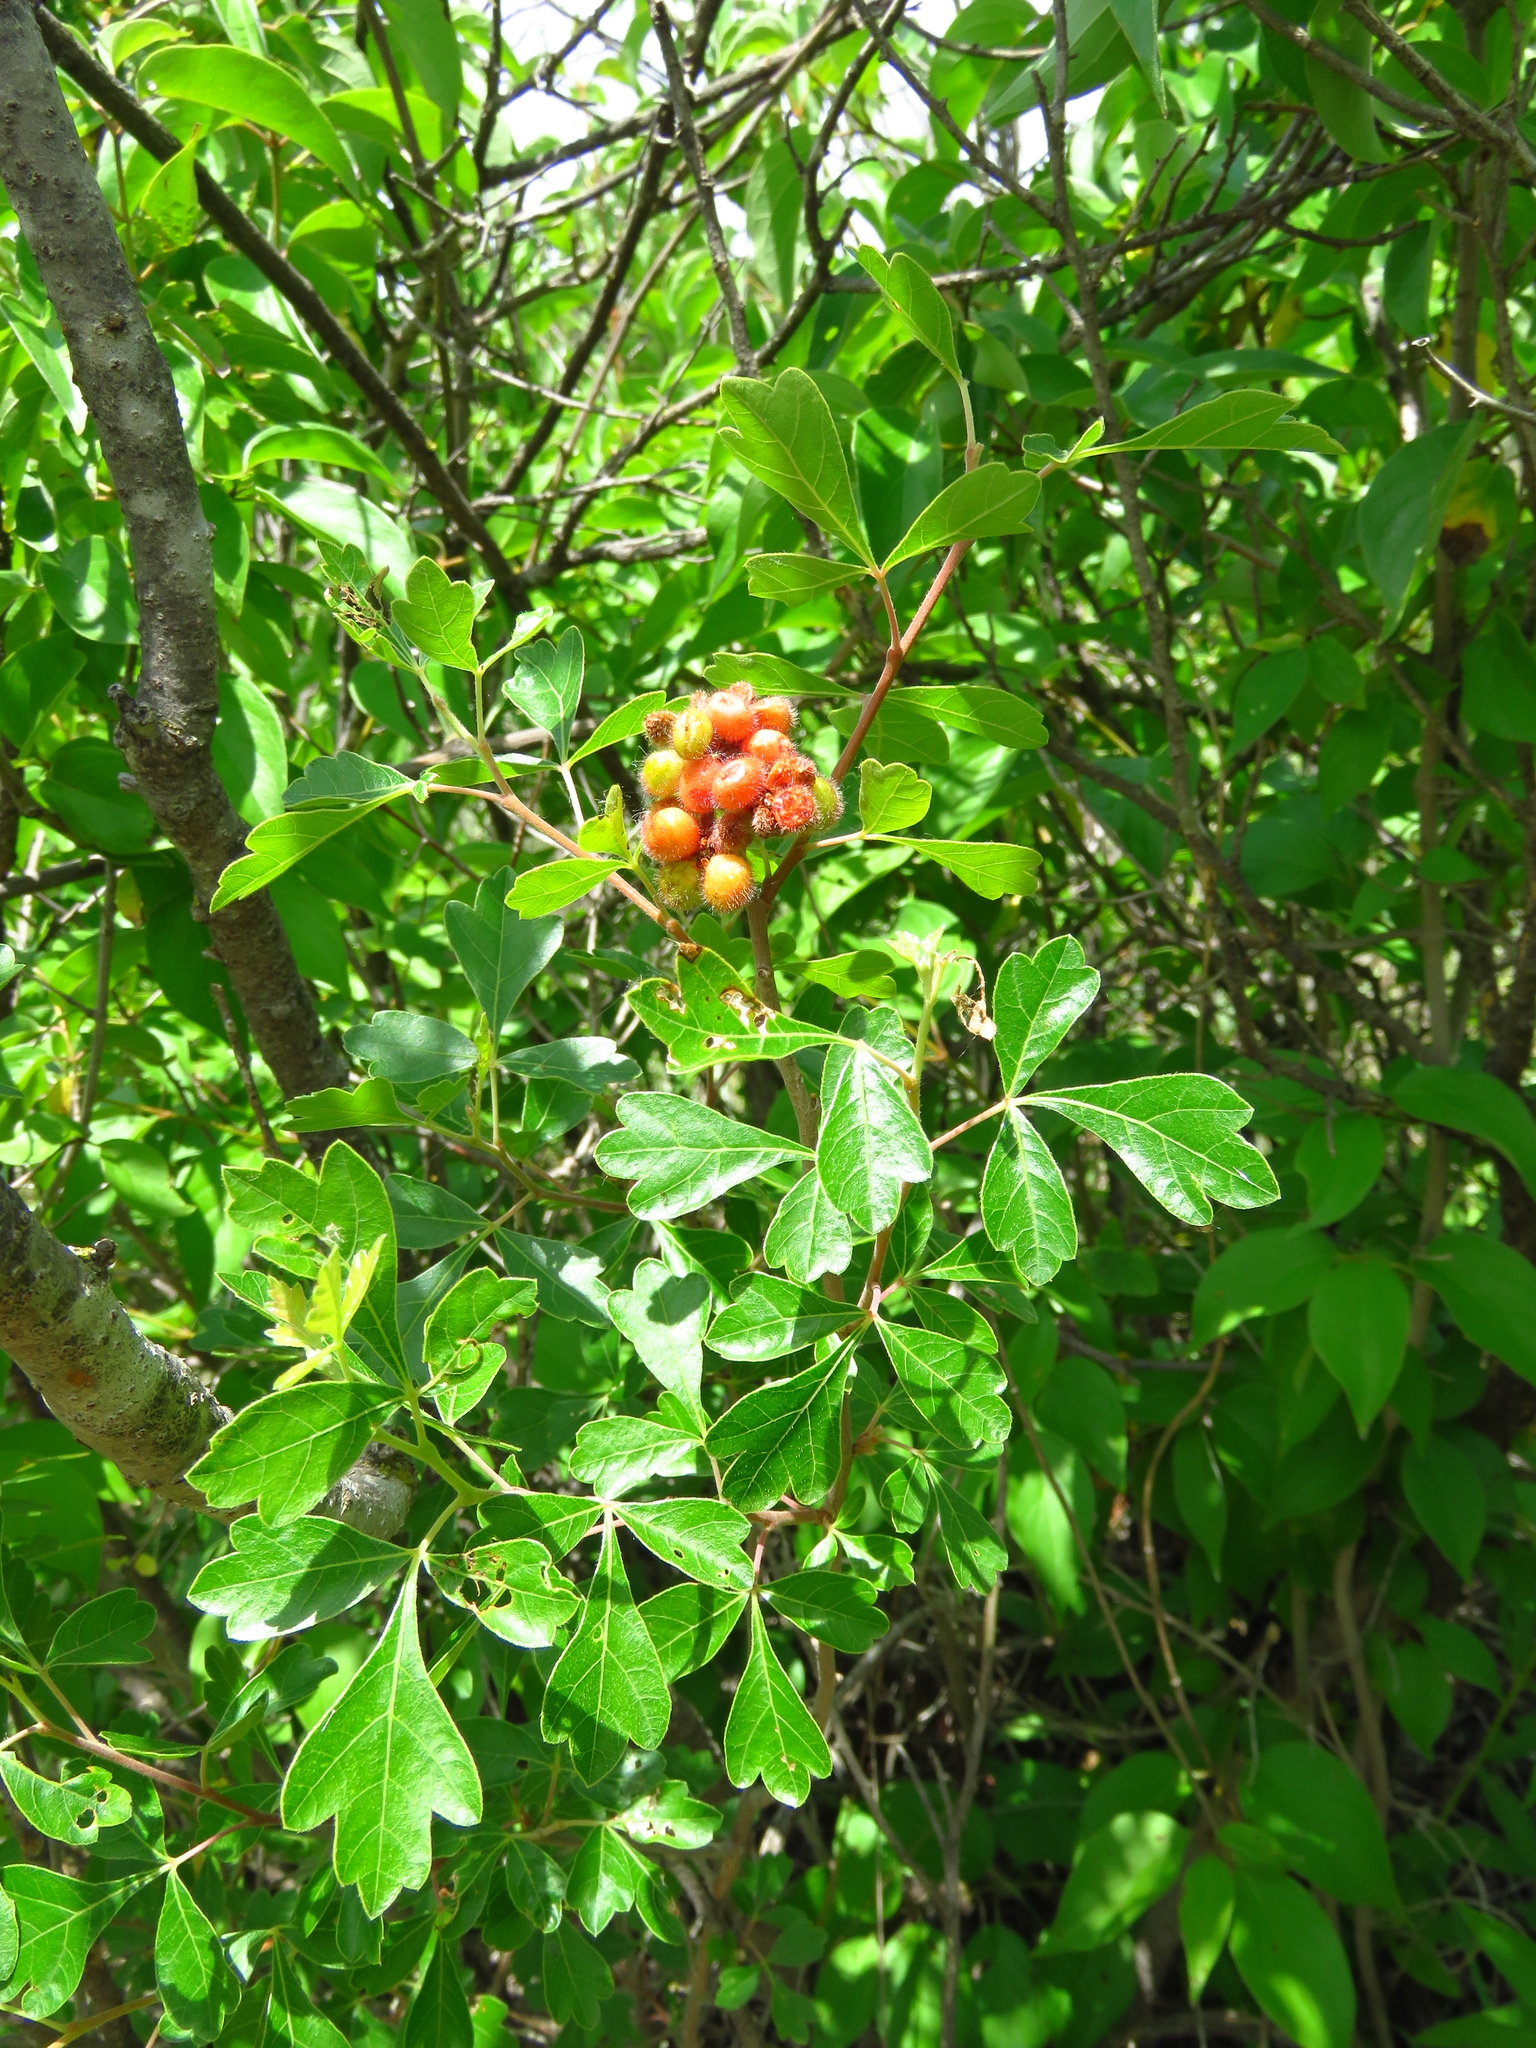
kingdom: Plantae
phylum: Tracheophyta
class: Magnoliopsida
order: Sapindales
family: Anacardiaceae
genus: Rhus
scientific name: Rhus aromatica
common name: Aromatic sumac
